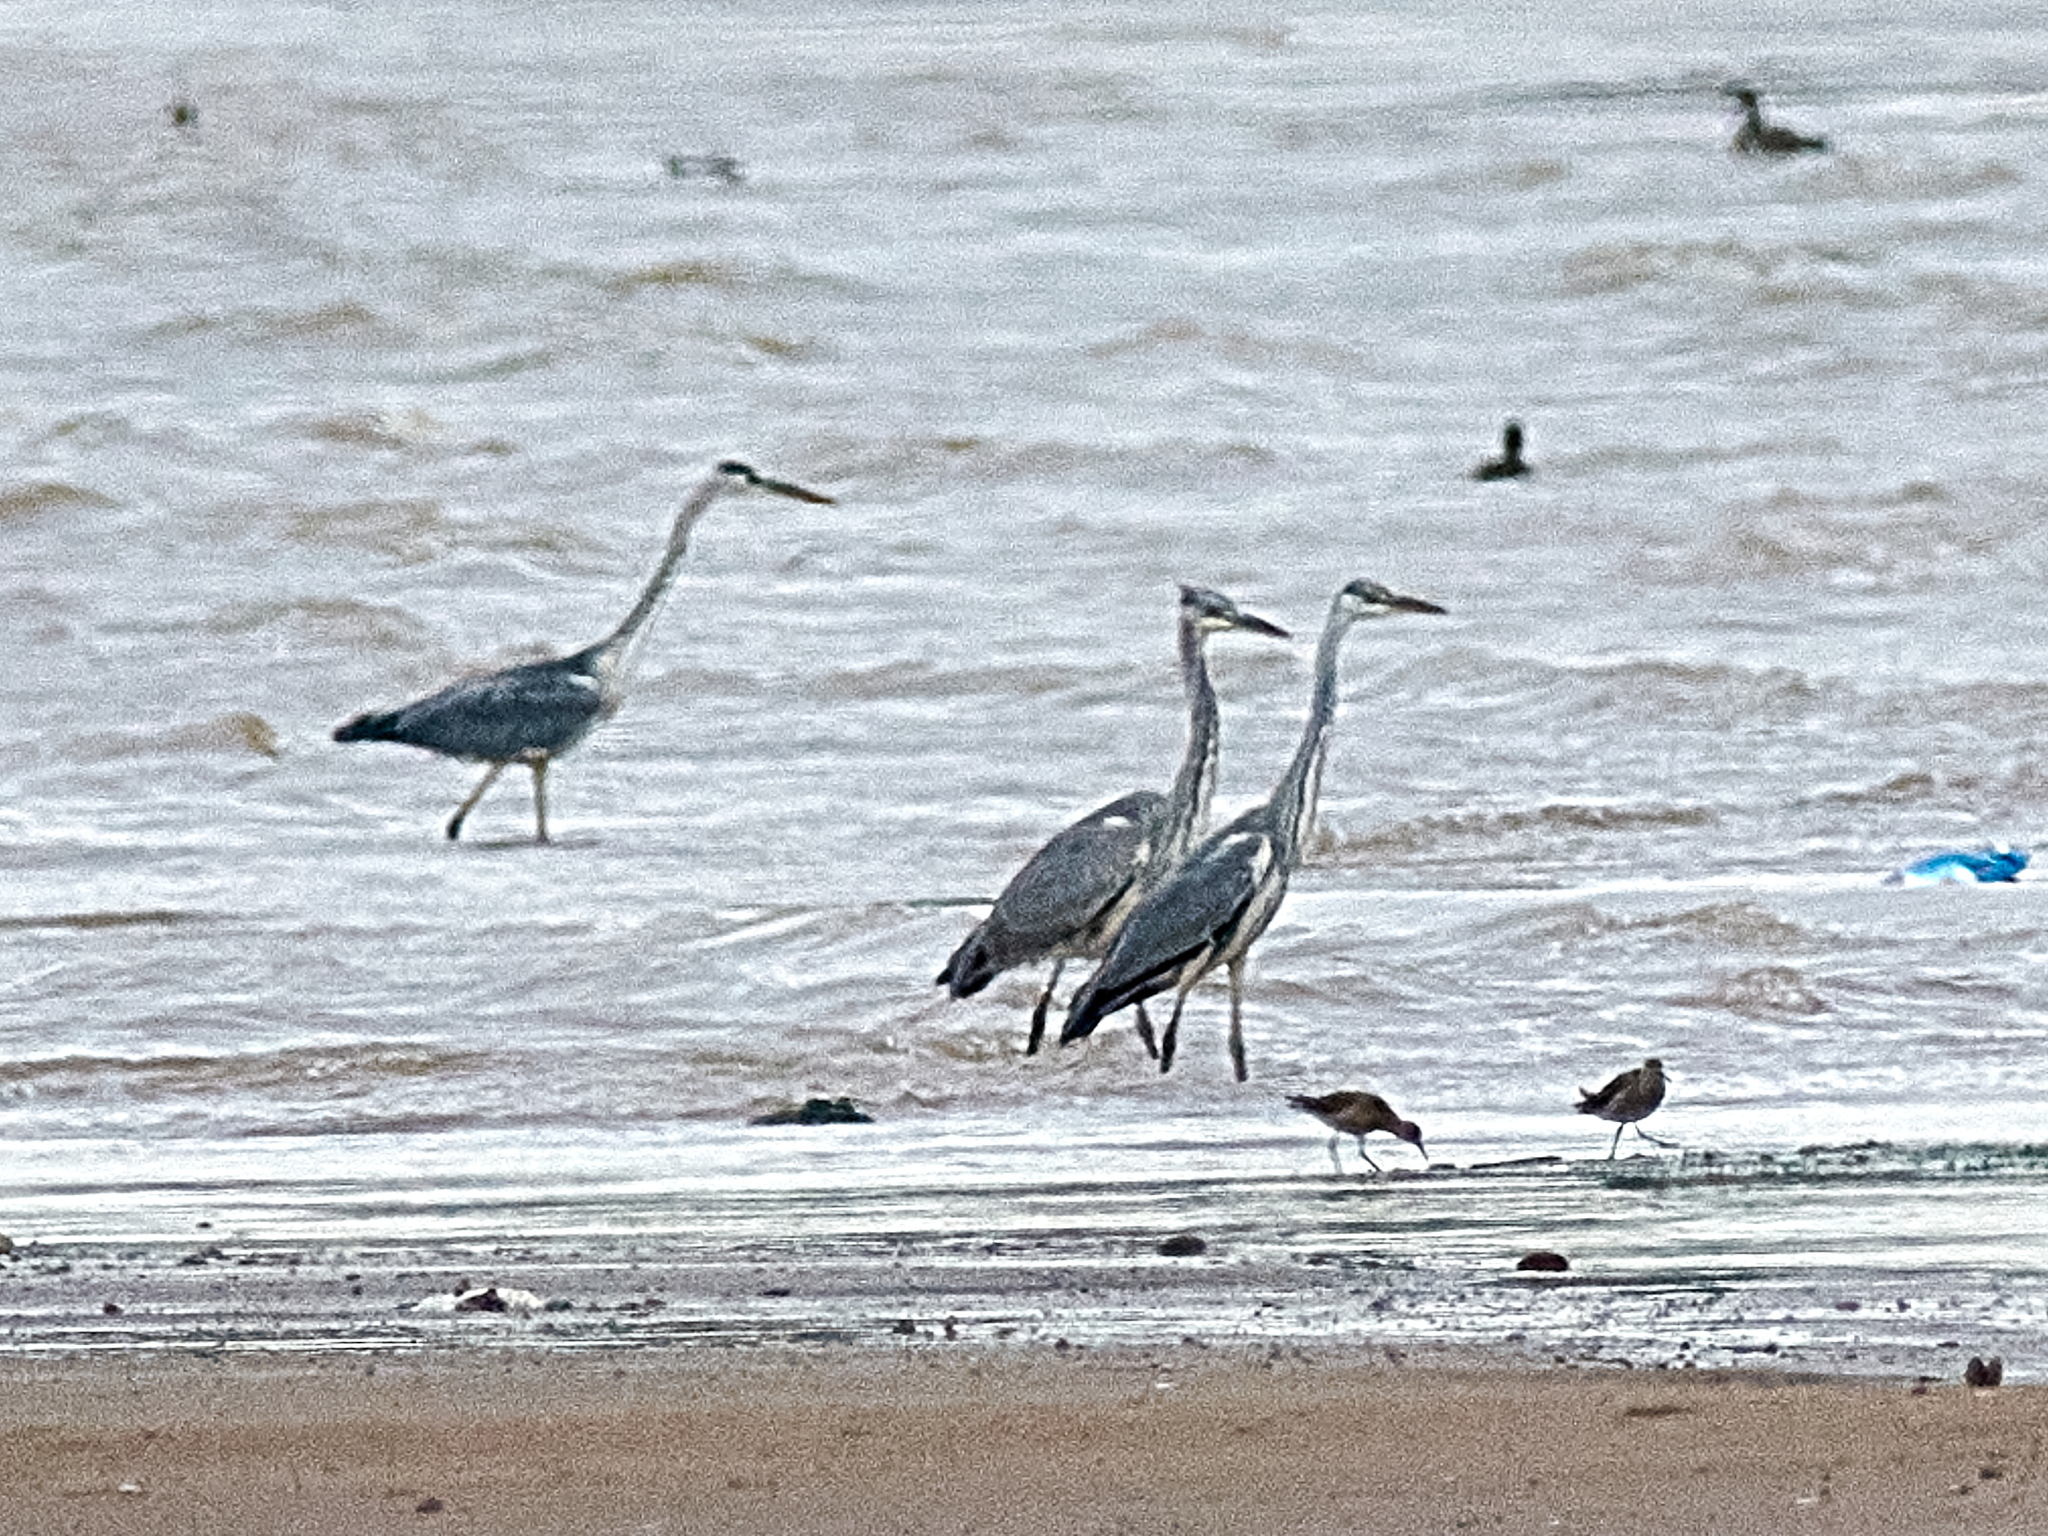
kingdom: Animalia
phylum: Chordata
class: Aves
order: Pelecaniformes
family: Ardeidae
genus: Ardea
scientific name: Ardea cinerea
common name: Grey heron
